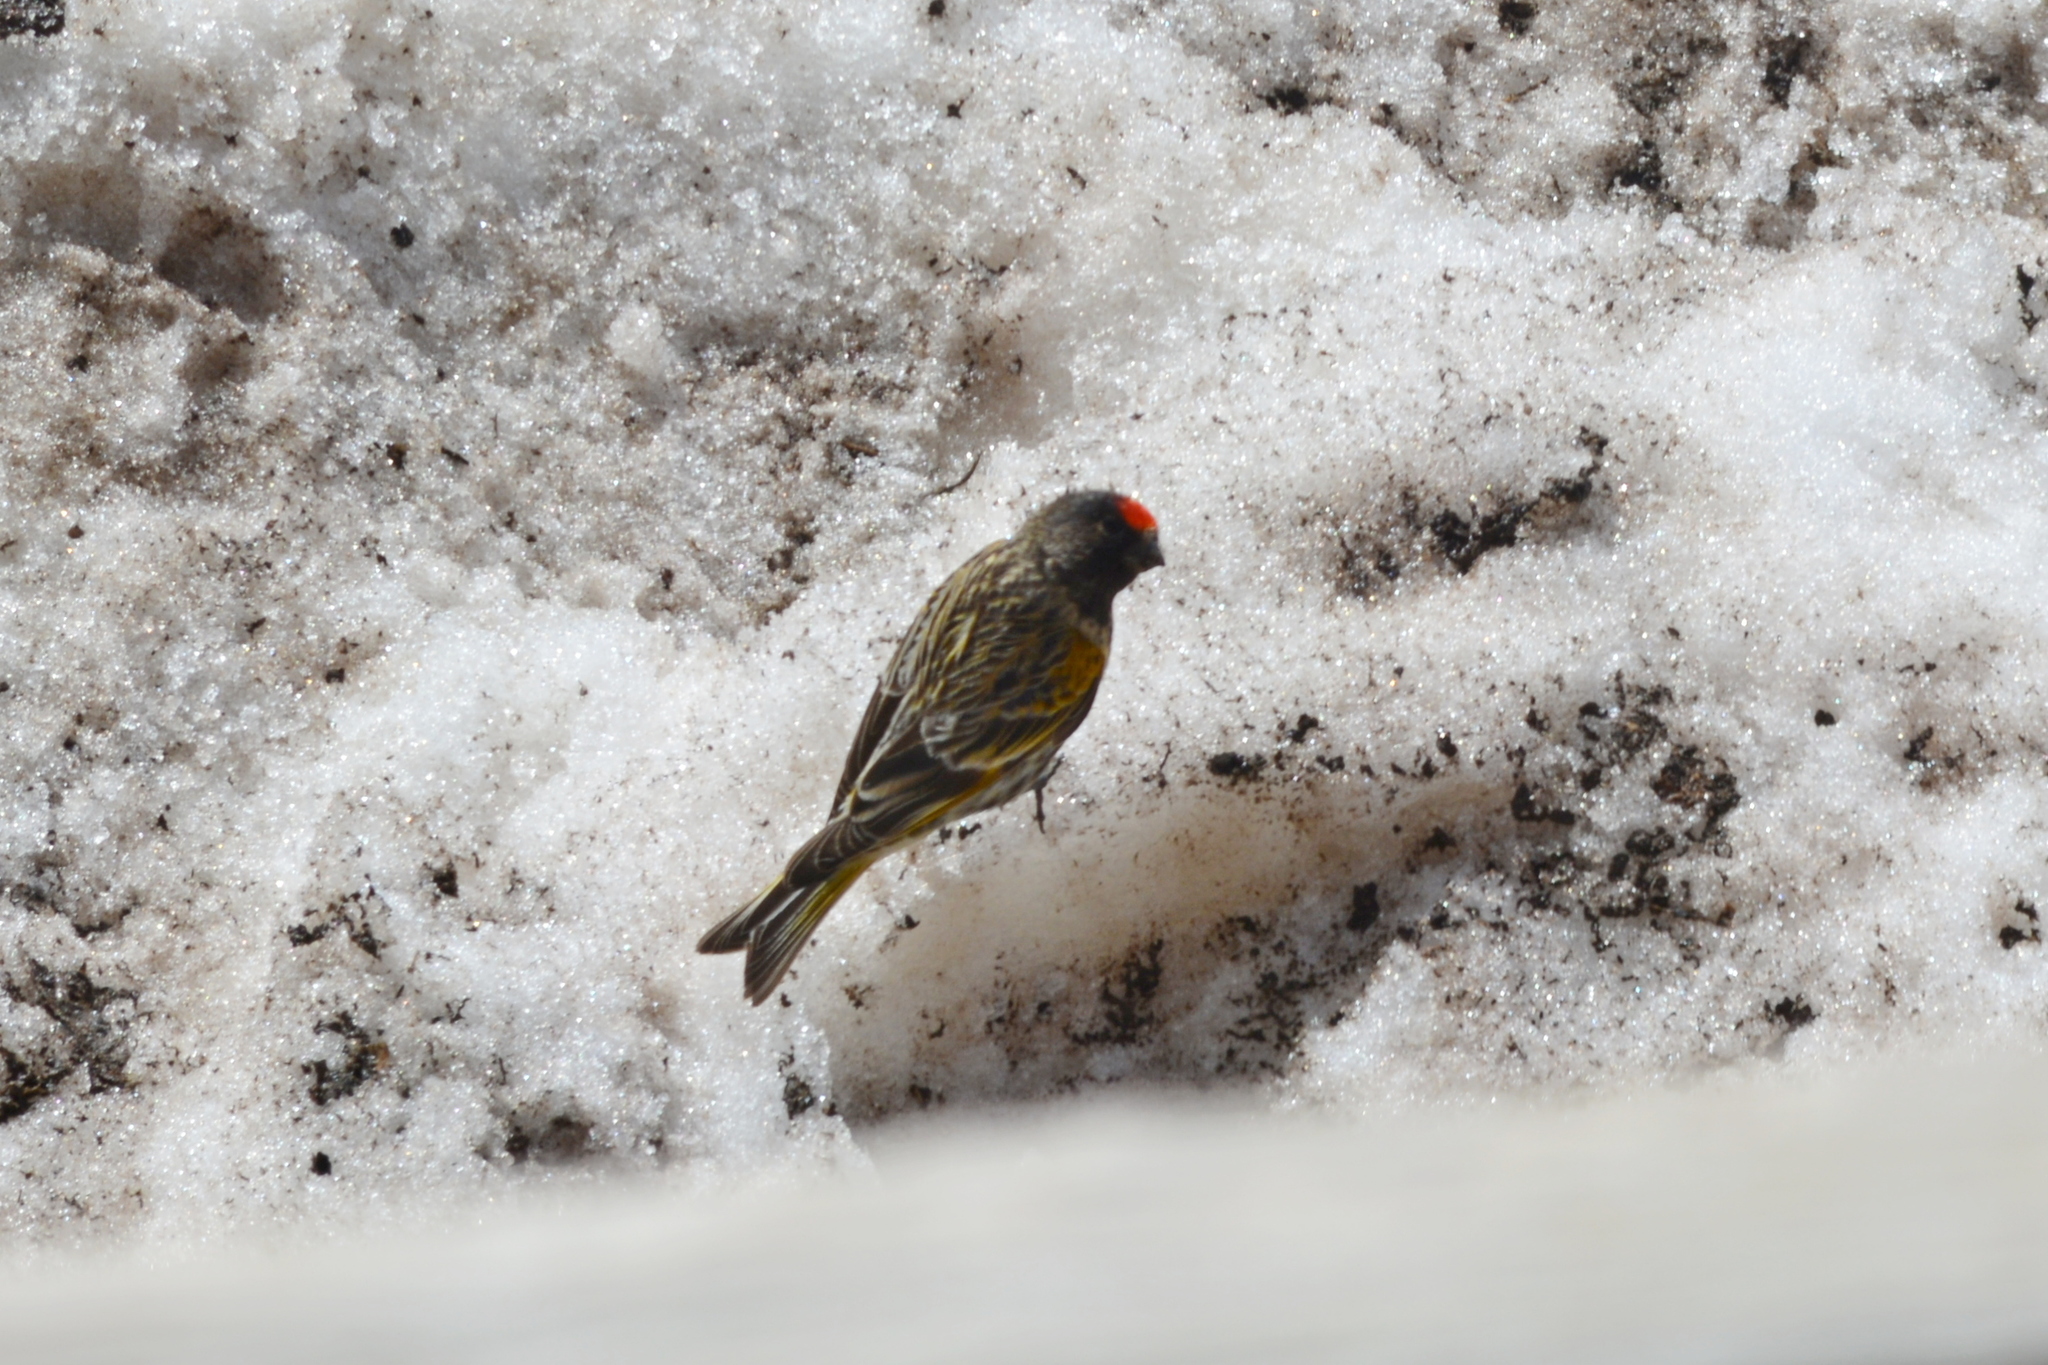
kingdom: Animalia
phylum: Chordata
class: Aves
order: Passeriformes
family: Fringillidae
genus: Serinus
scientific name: Serinus pusillus
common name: Red-fronted serin
